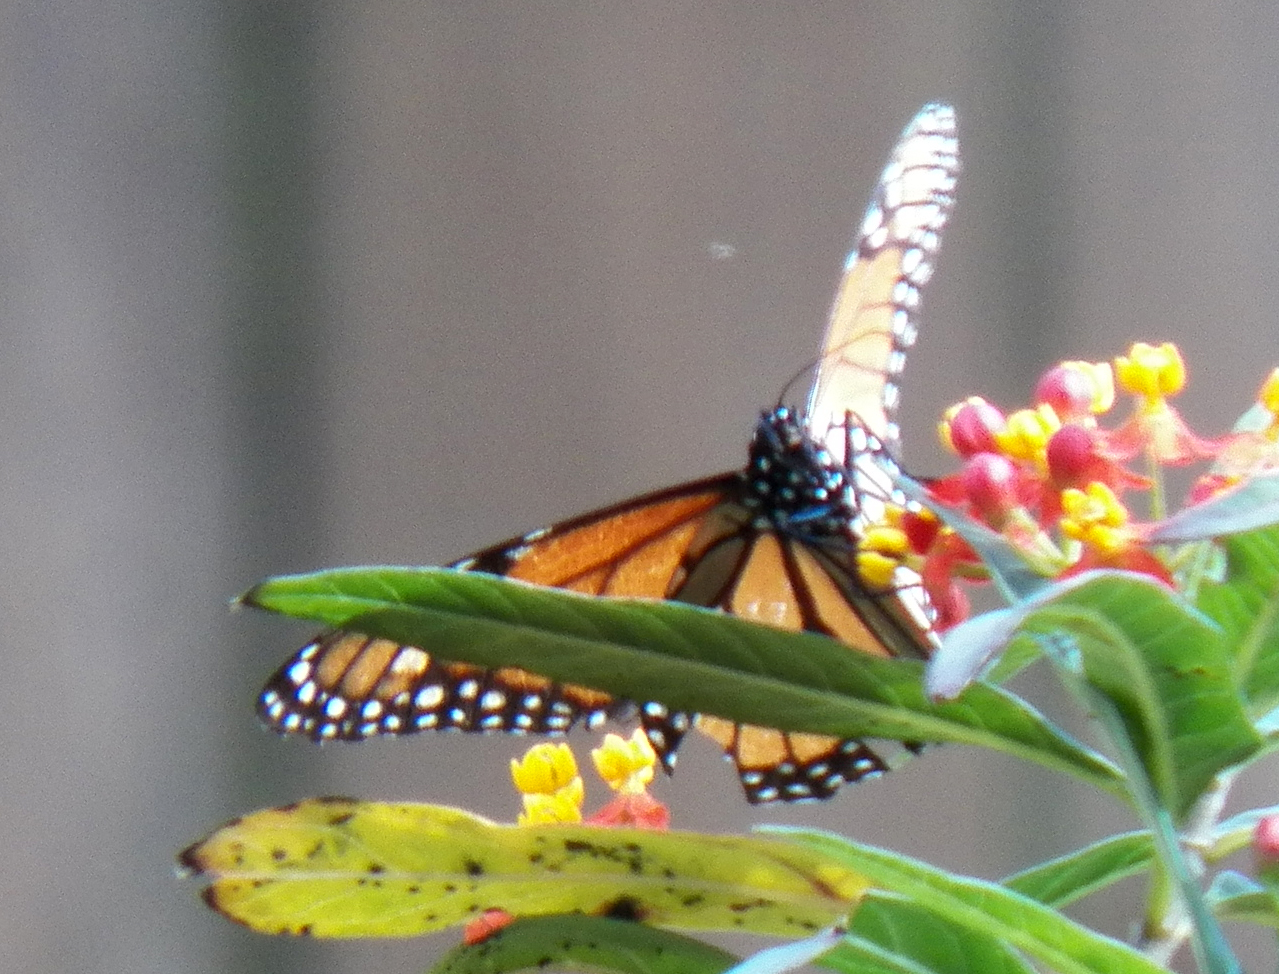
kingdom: Animalia
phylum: Arthropoda
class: Insecta
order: Lepidoptera
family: Nymphalidae
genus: Danaus
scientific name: Danaus plexippus
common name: Monarch
